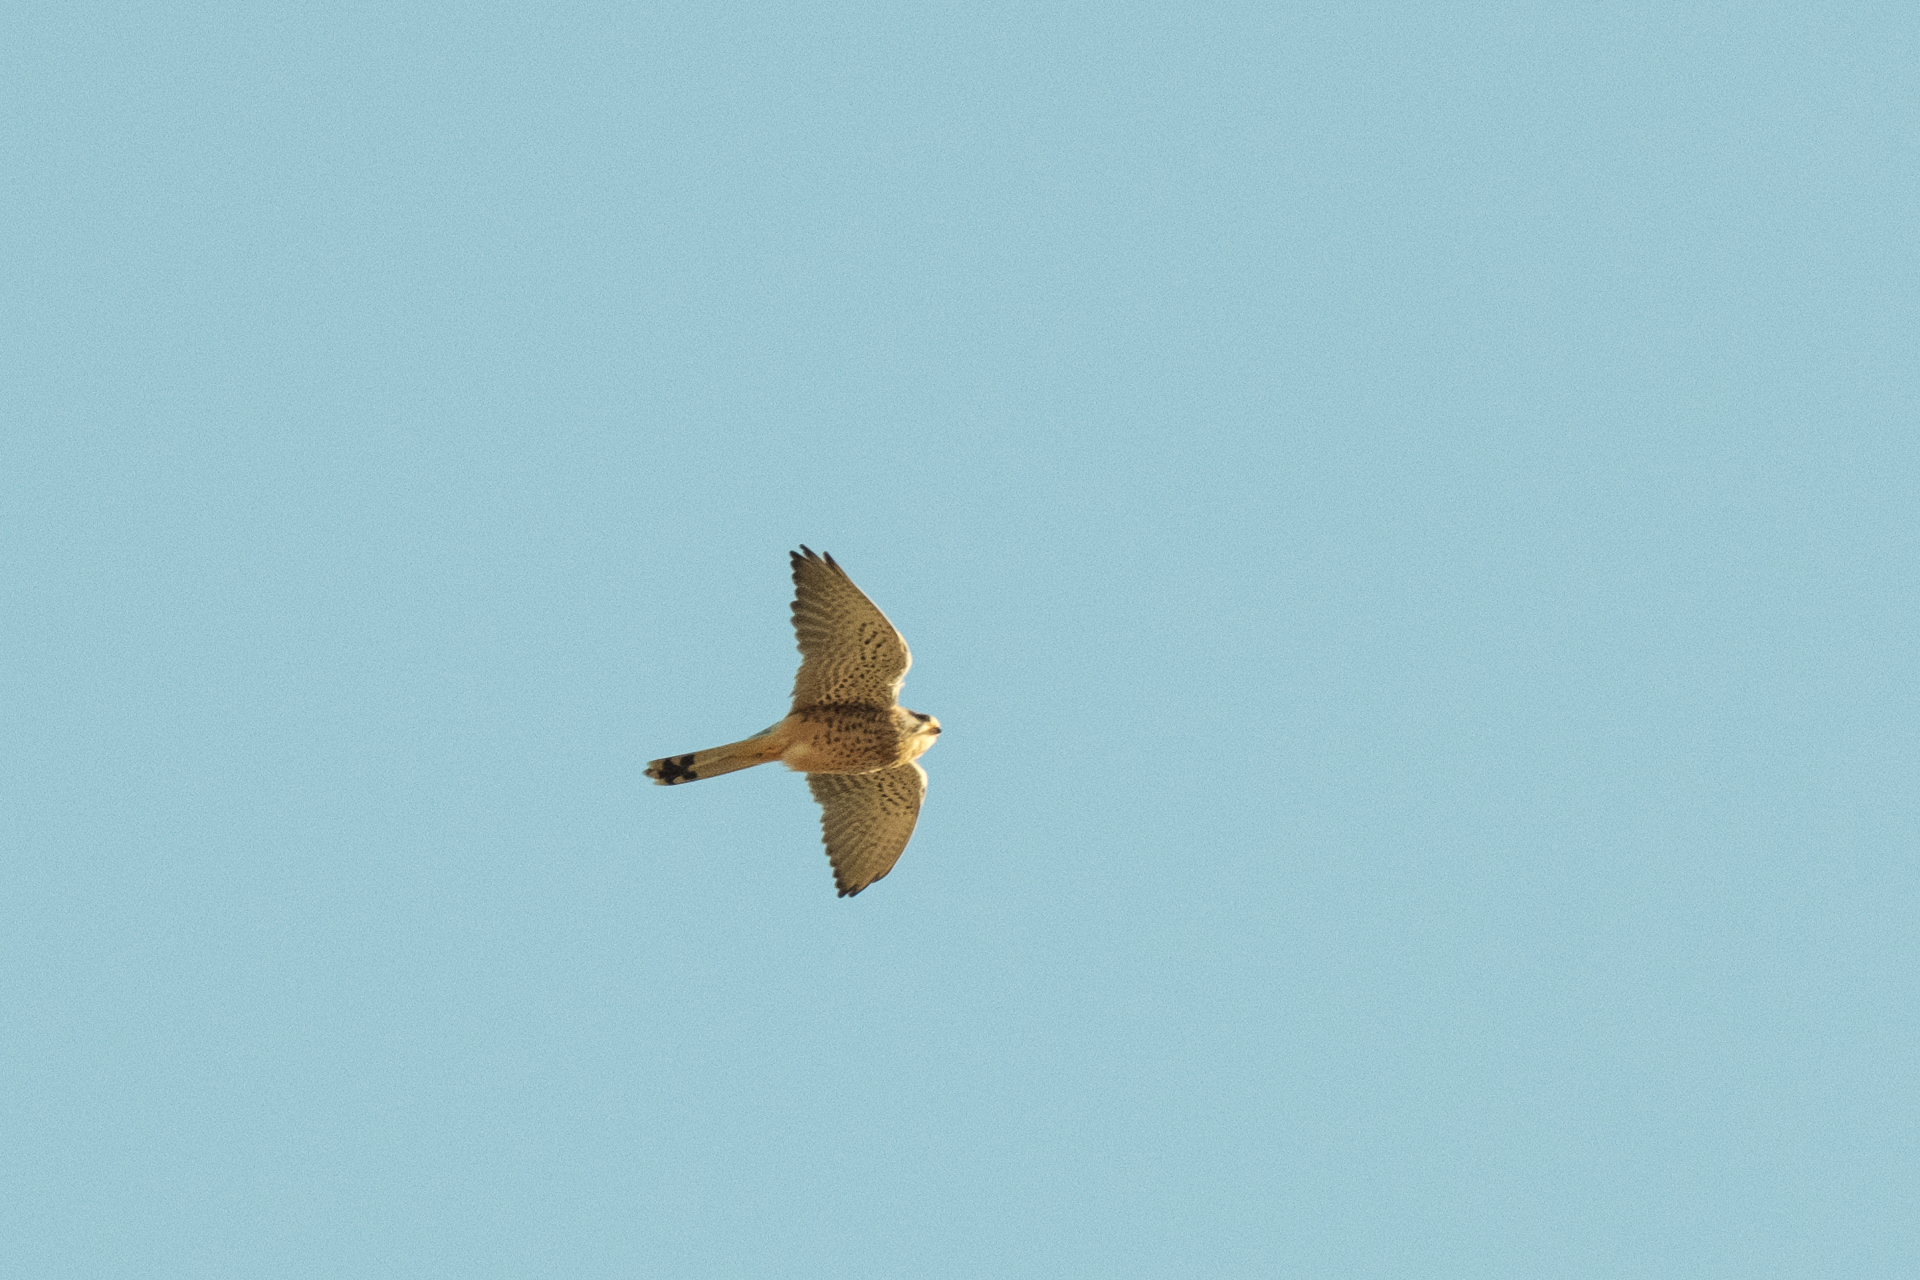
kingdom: Animalia
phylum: Chordata
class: Aves
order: Falconiformes
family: Falconidae
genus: Falco
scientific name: Falco tinnunculus
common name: Common kestrel
